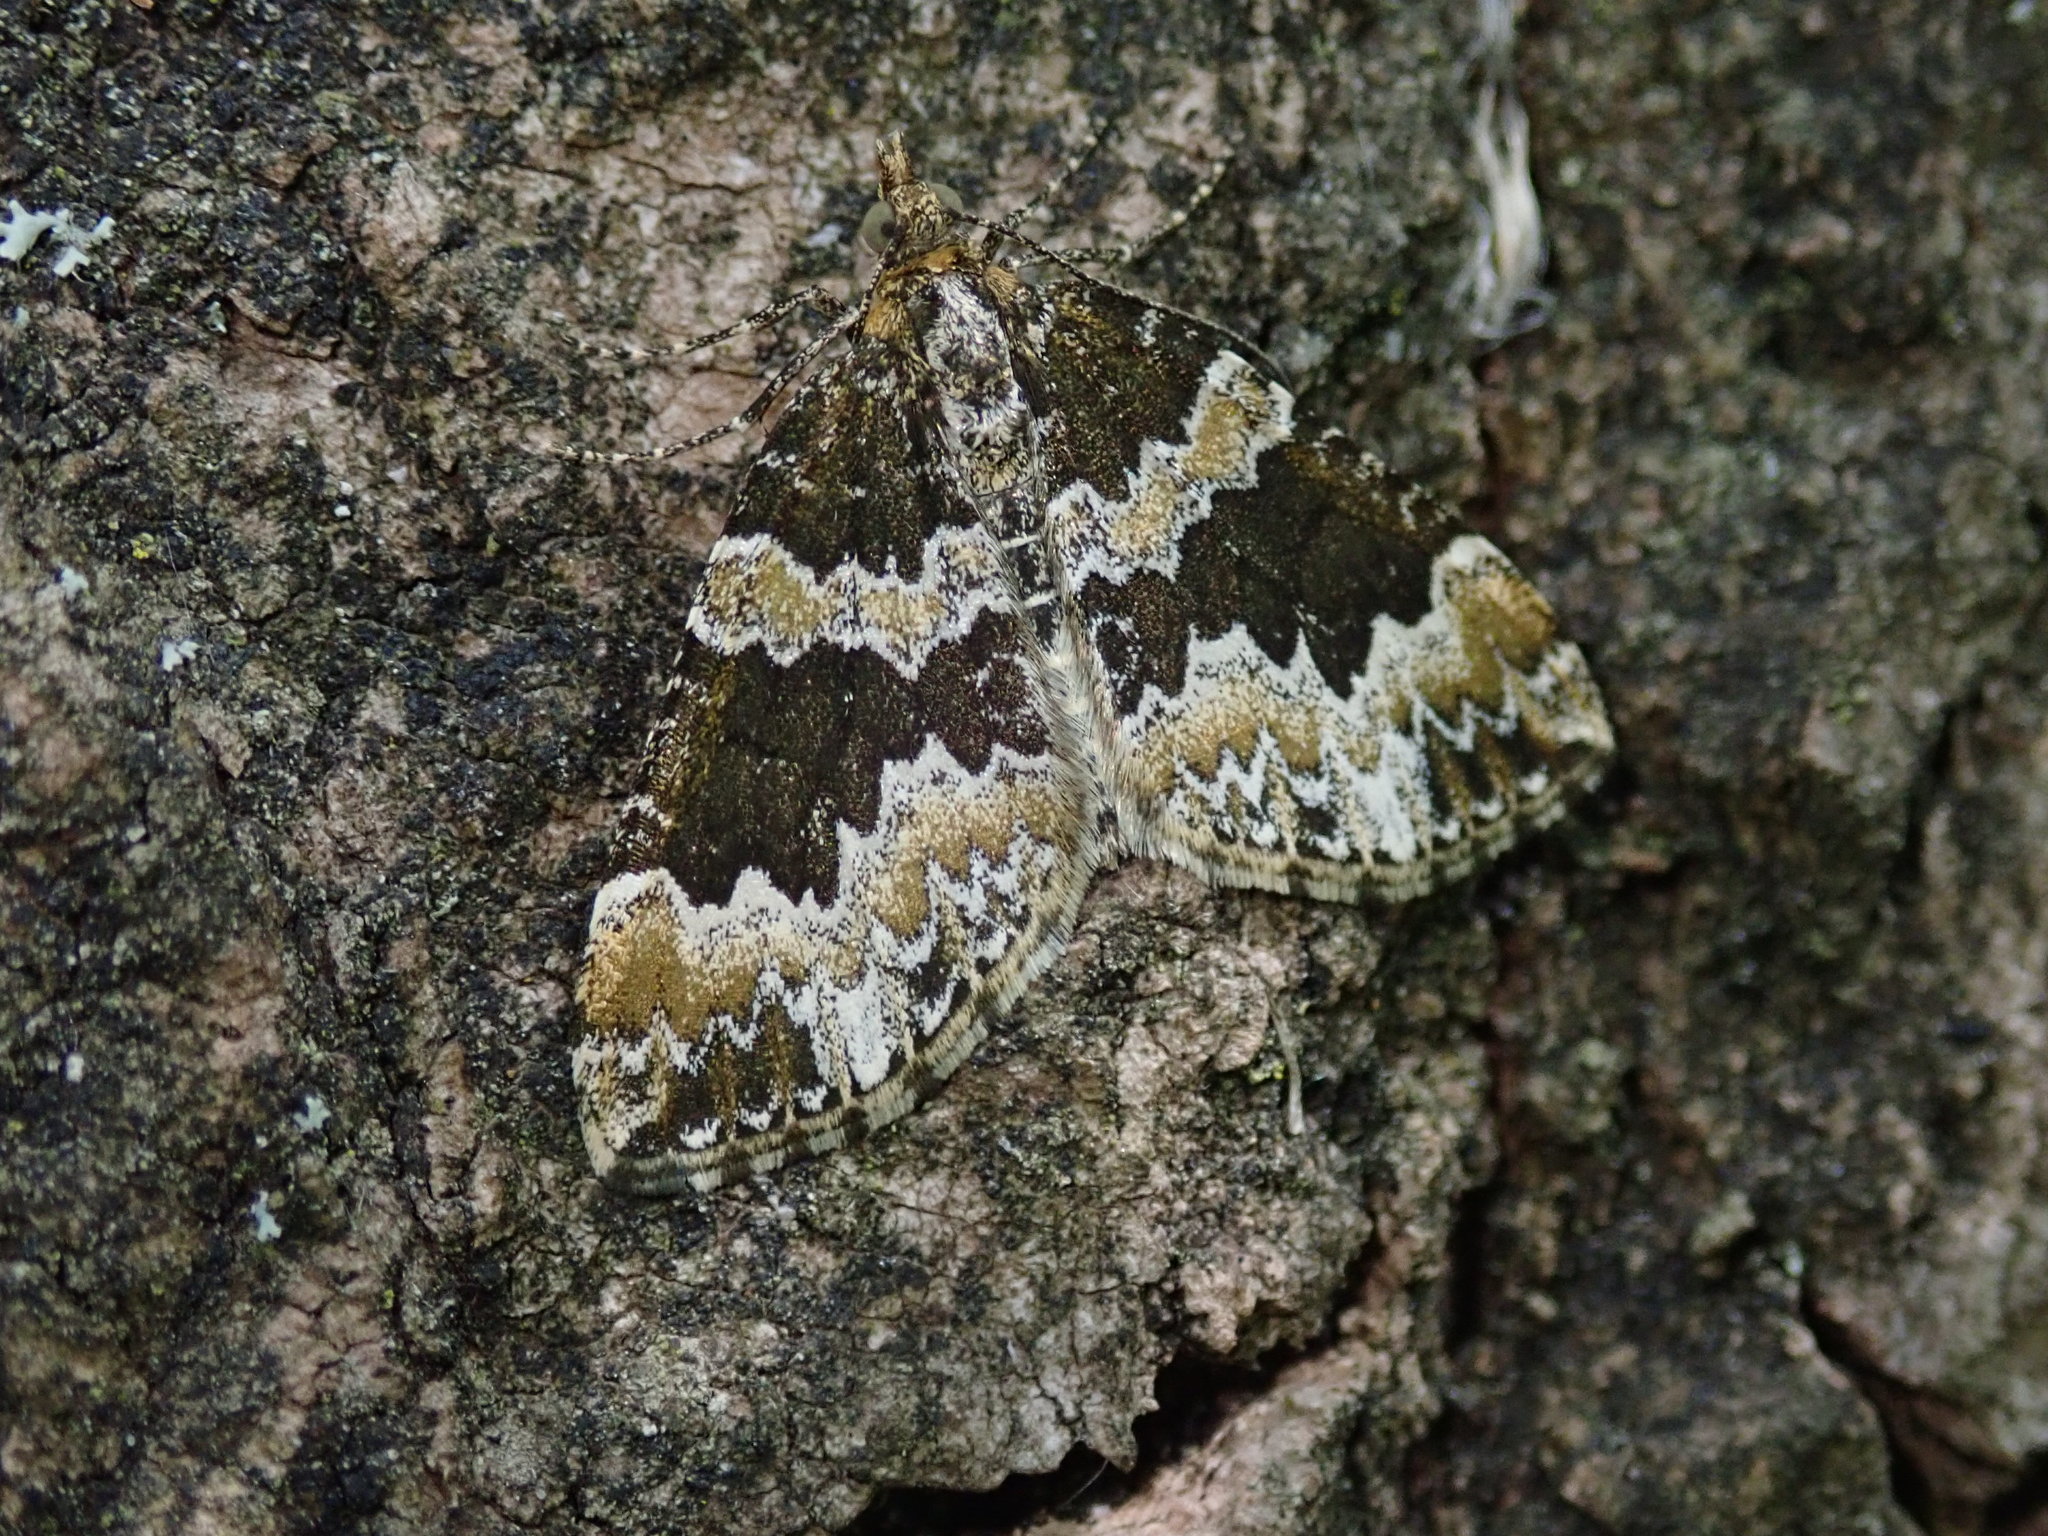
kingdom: Animalia
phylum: Arthropoda
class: Insecta
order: Lepidoptera
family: Geometridae
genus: Electrophaes
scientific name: Electrophaes corylata
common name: Broken-barred carpet
